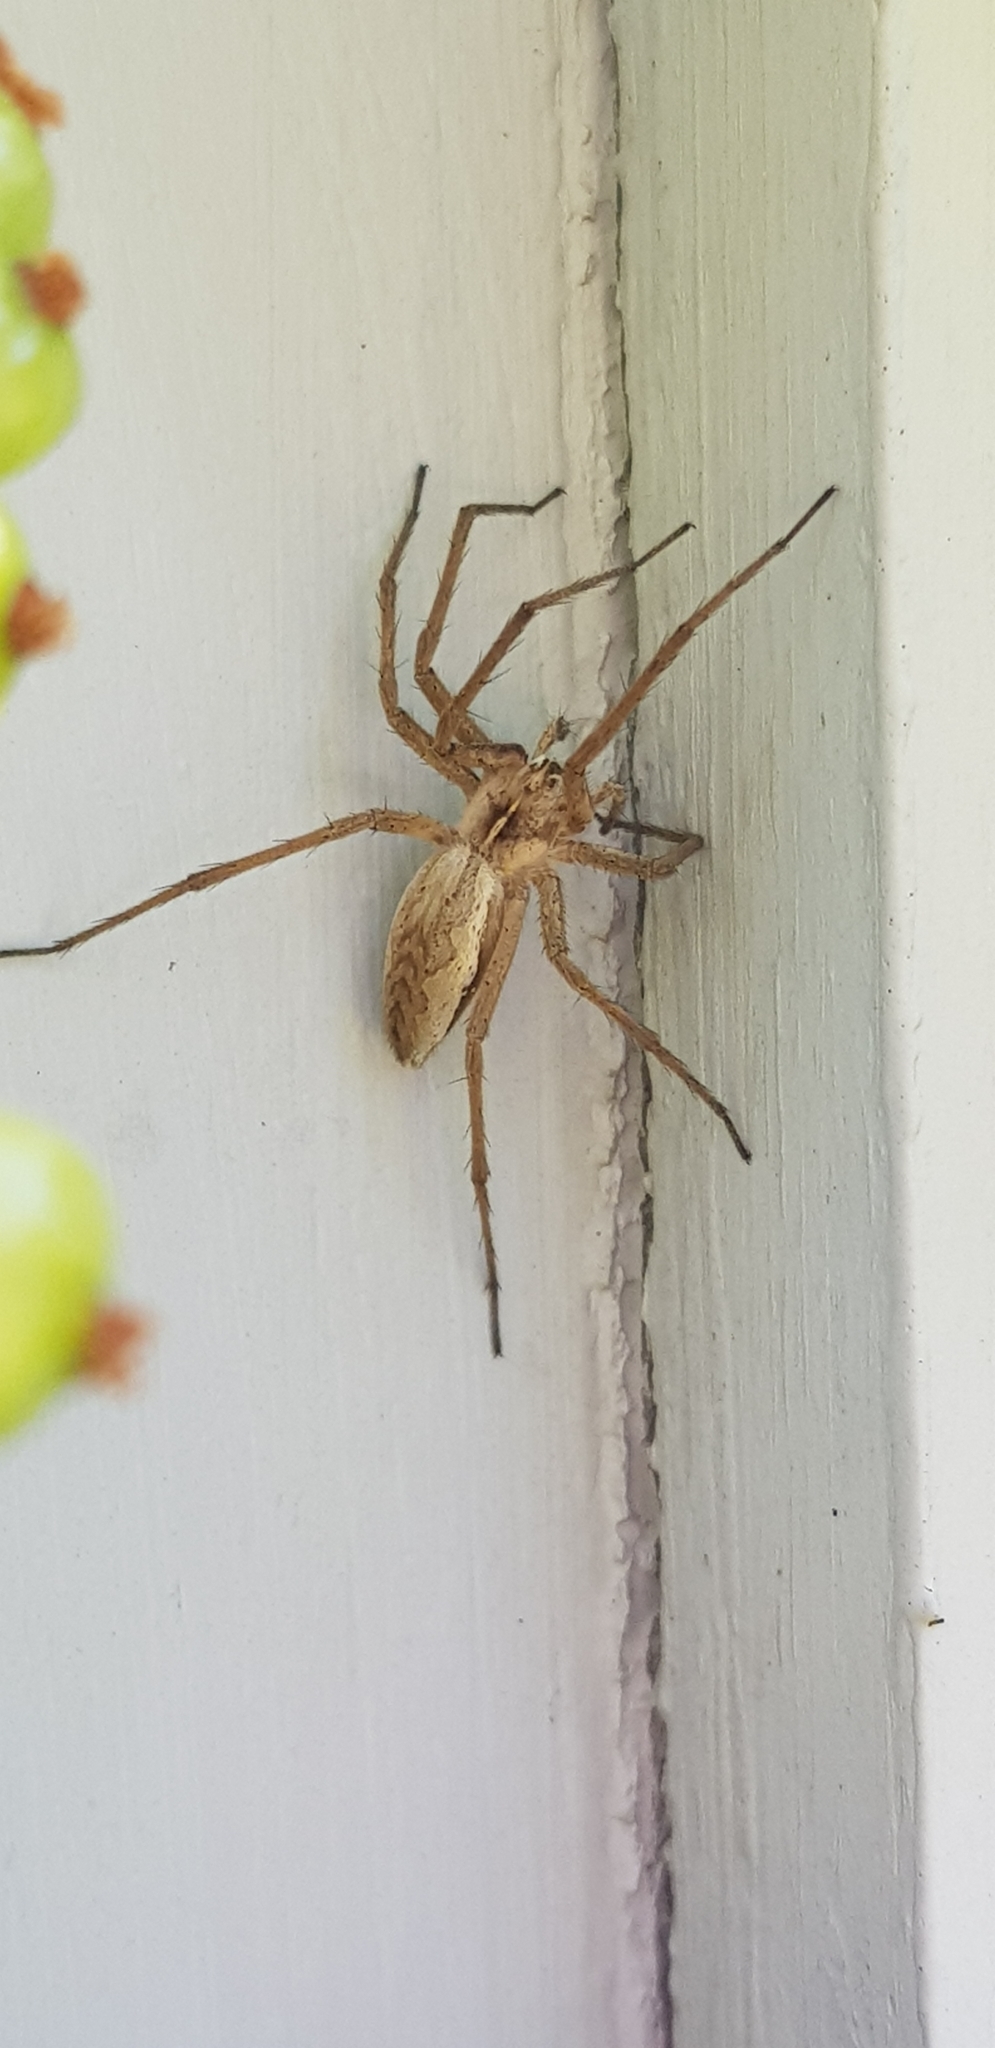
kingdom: Animalia
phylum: Arthropoda
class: Arachnida
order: Araneae
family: Pisauridae
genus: Pisaura
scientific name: Pisaura mirabilis
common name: Tent spider
